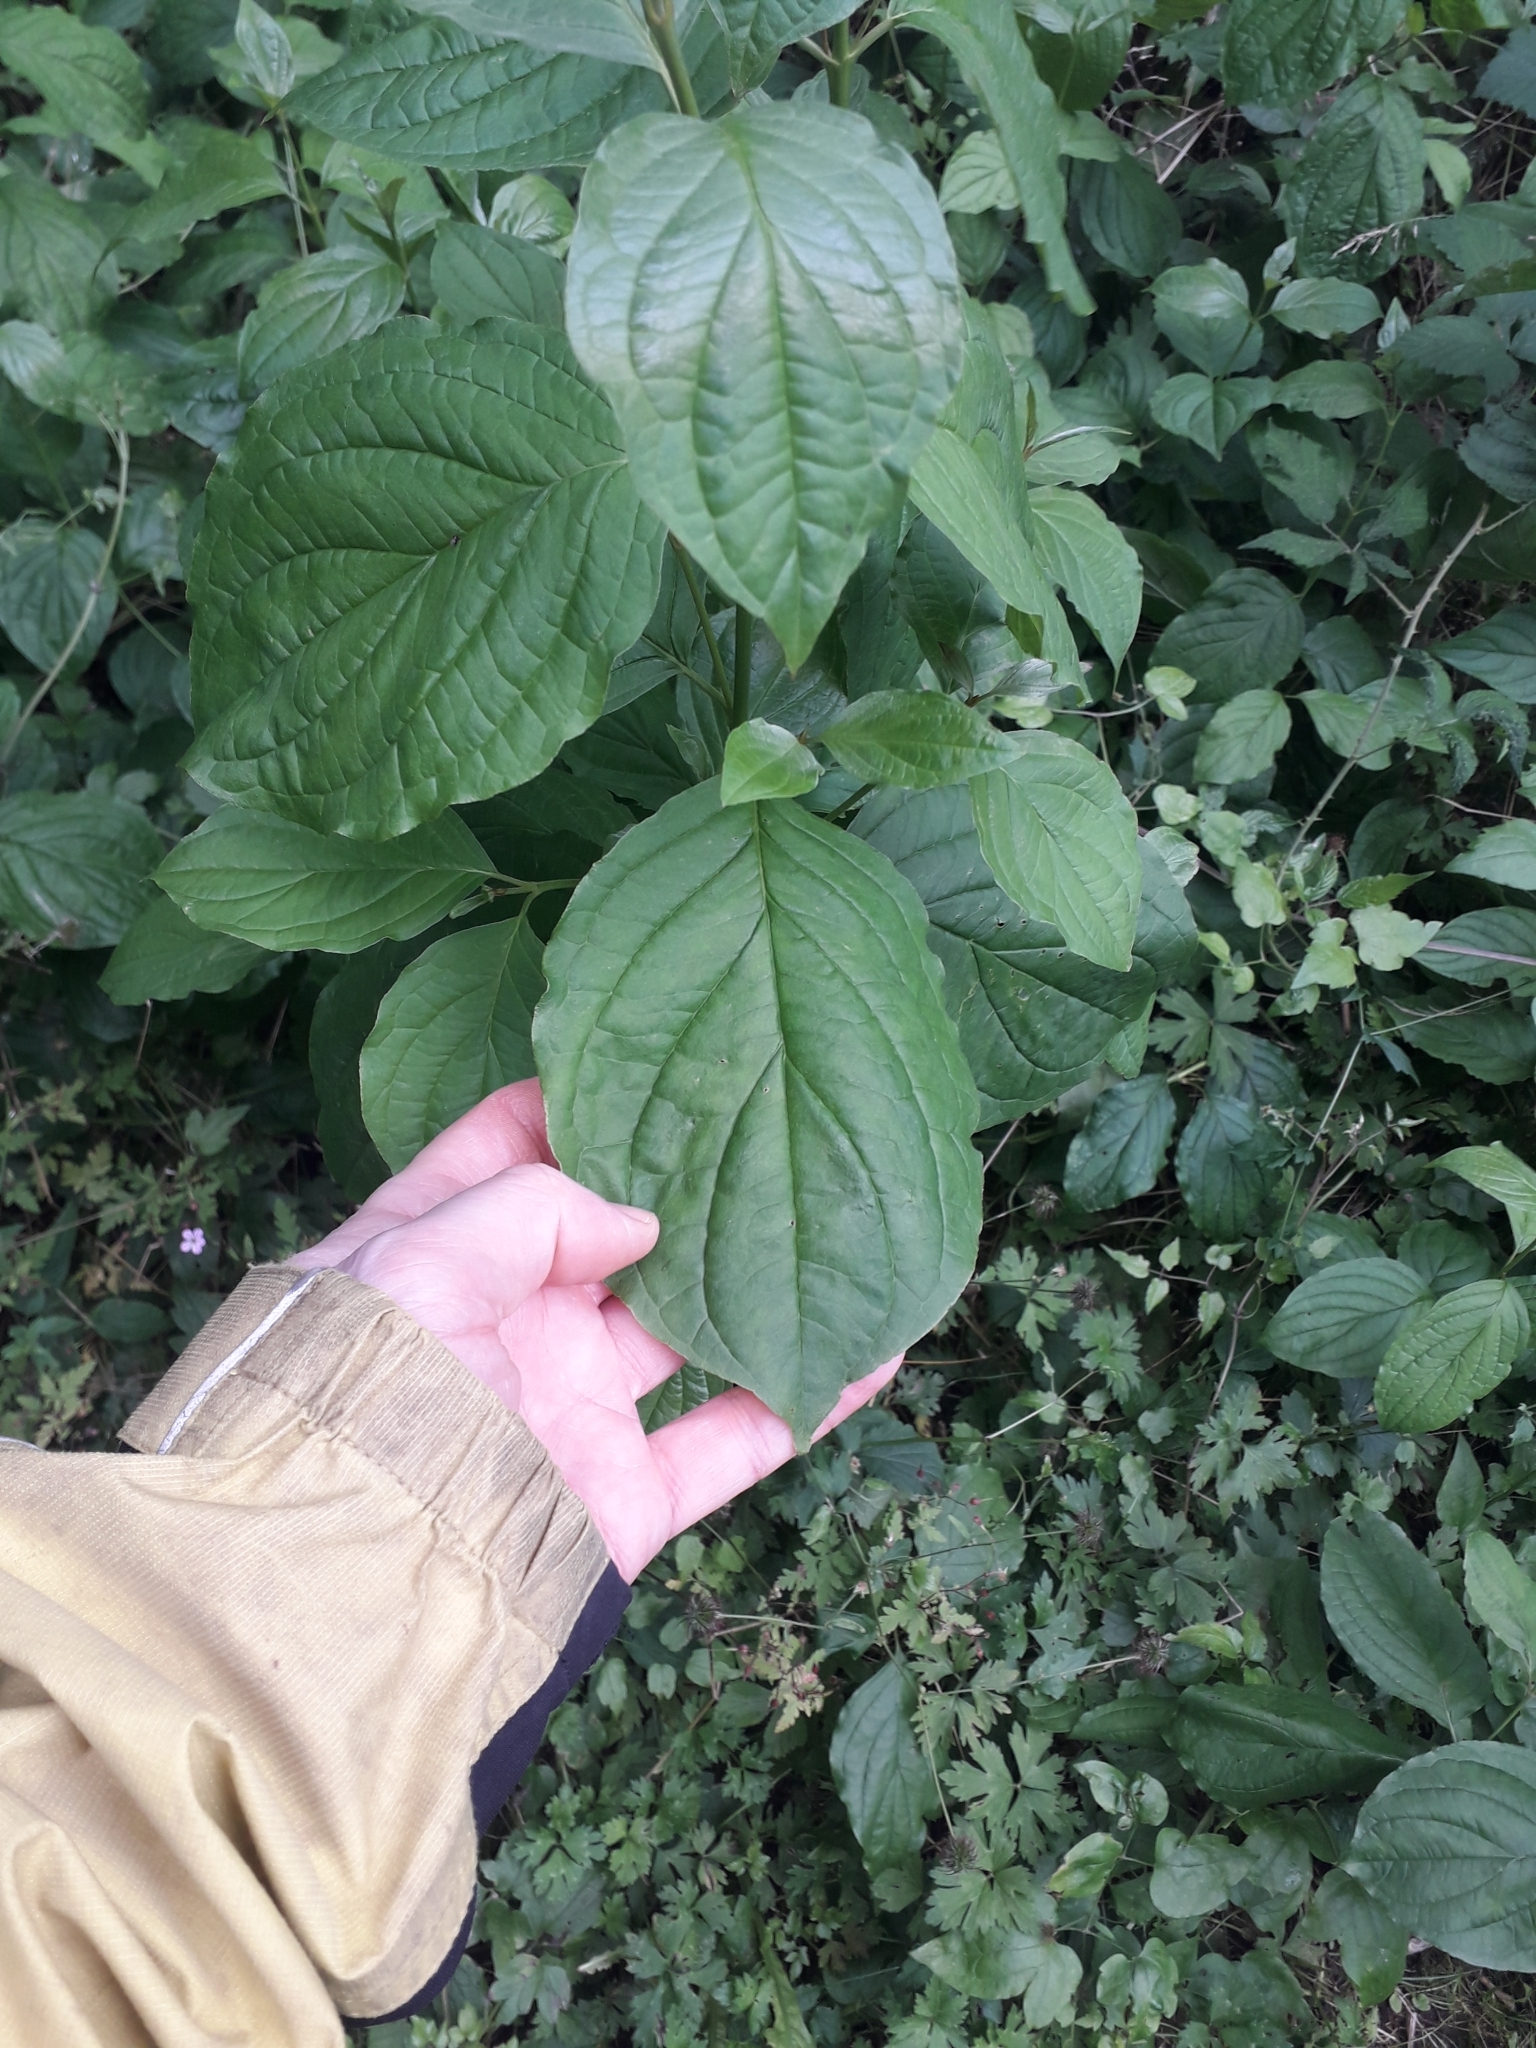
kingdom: Plantae
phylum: Tracheophyta
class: Magnoliopsida
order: Cornales
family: Cornaceae
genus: Cornus
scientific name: Cornus sanguinea
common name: Dogwood
